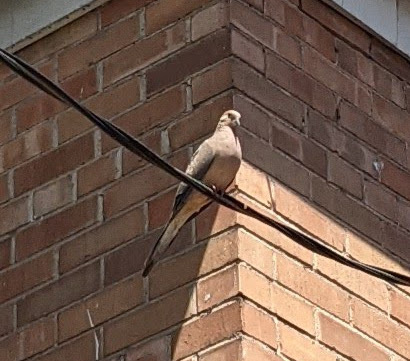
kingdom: Animalia
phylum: Chordata
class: Aves
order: Columbiformes
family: Columbidae
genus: Zenaida
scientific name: Zenaida macroura
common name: Mourning dove
